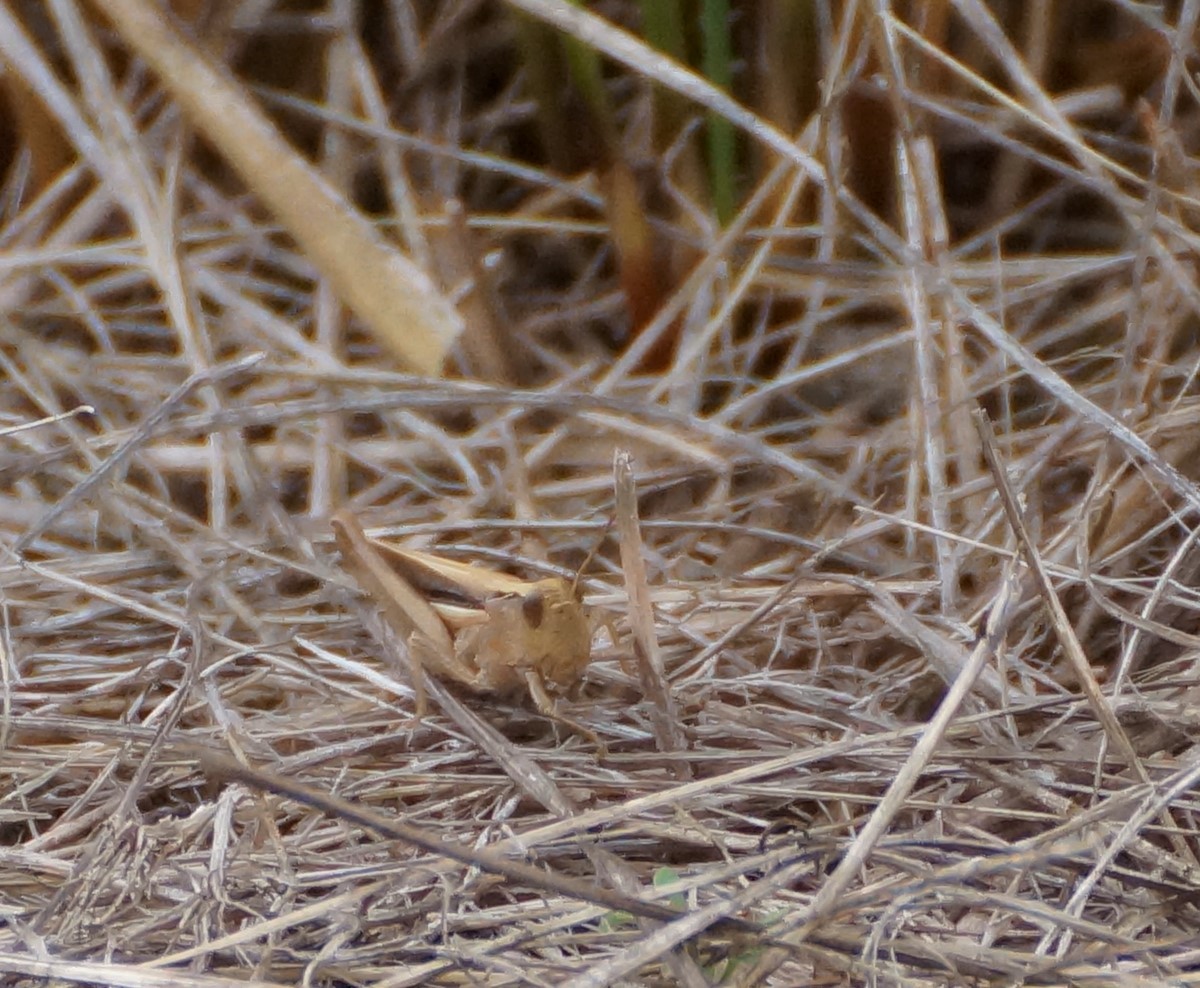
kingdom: Animalia
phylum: Arthropoda
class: Insecta
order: Orthoptera
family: Acrididae
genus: Schizobothrus
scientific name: Schizobothrus flavovittatus
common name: Disappearing grasshopper
